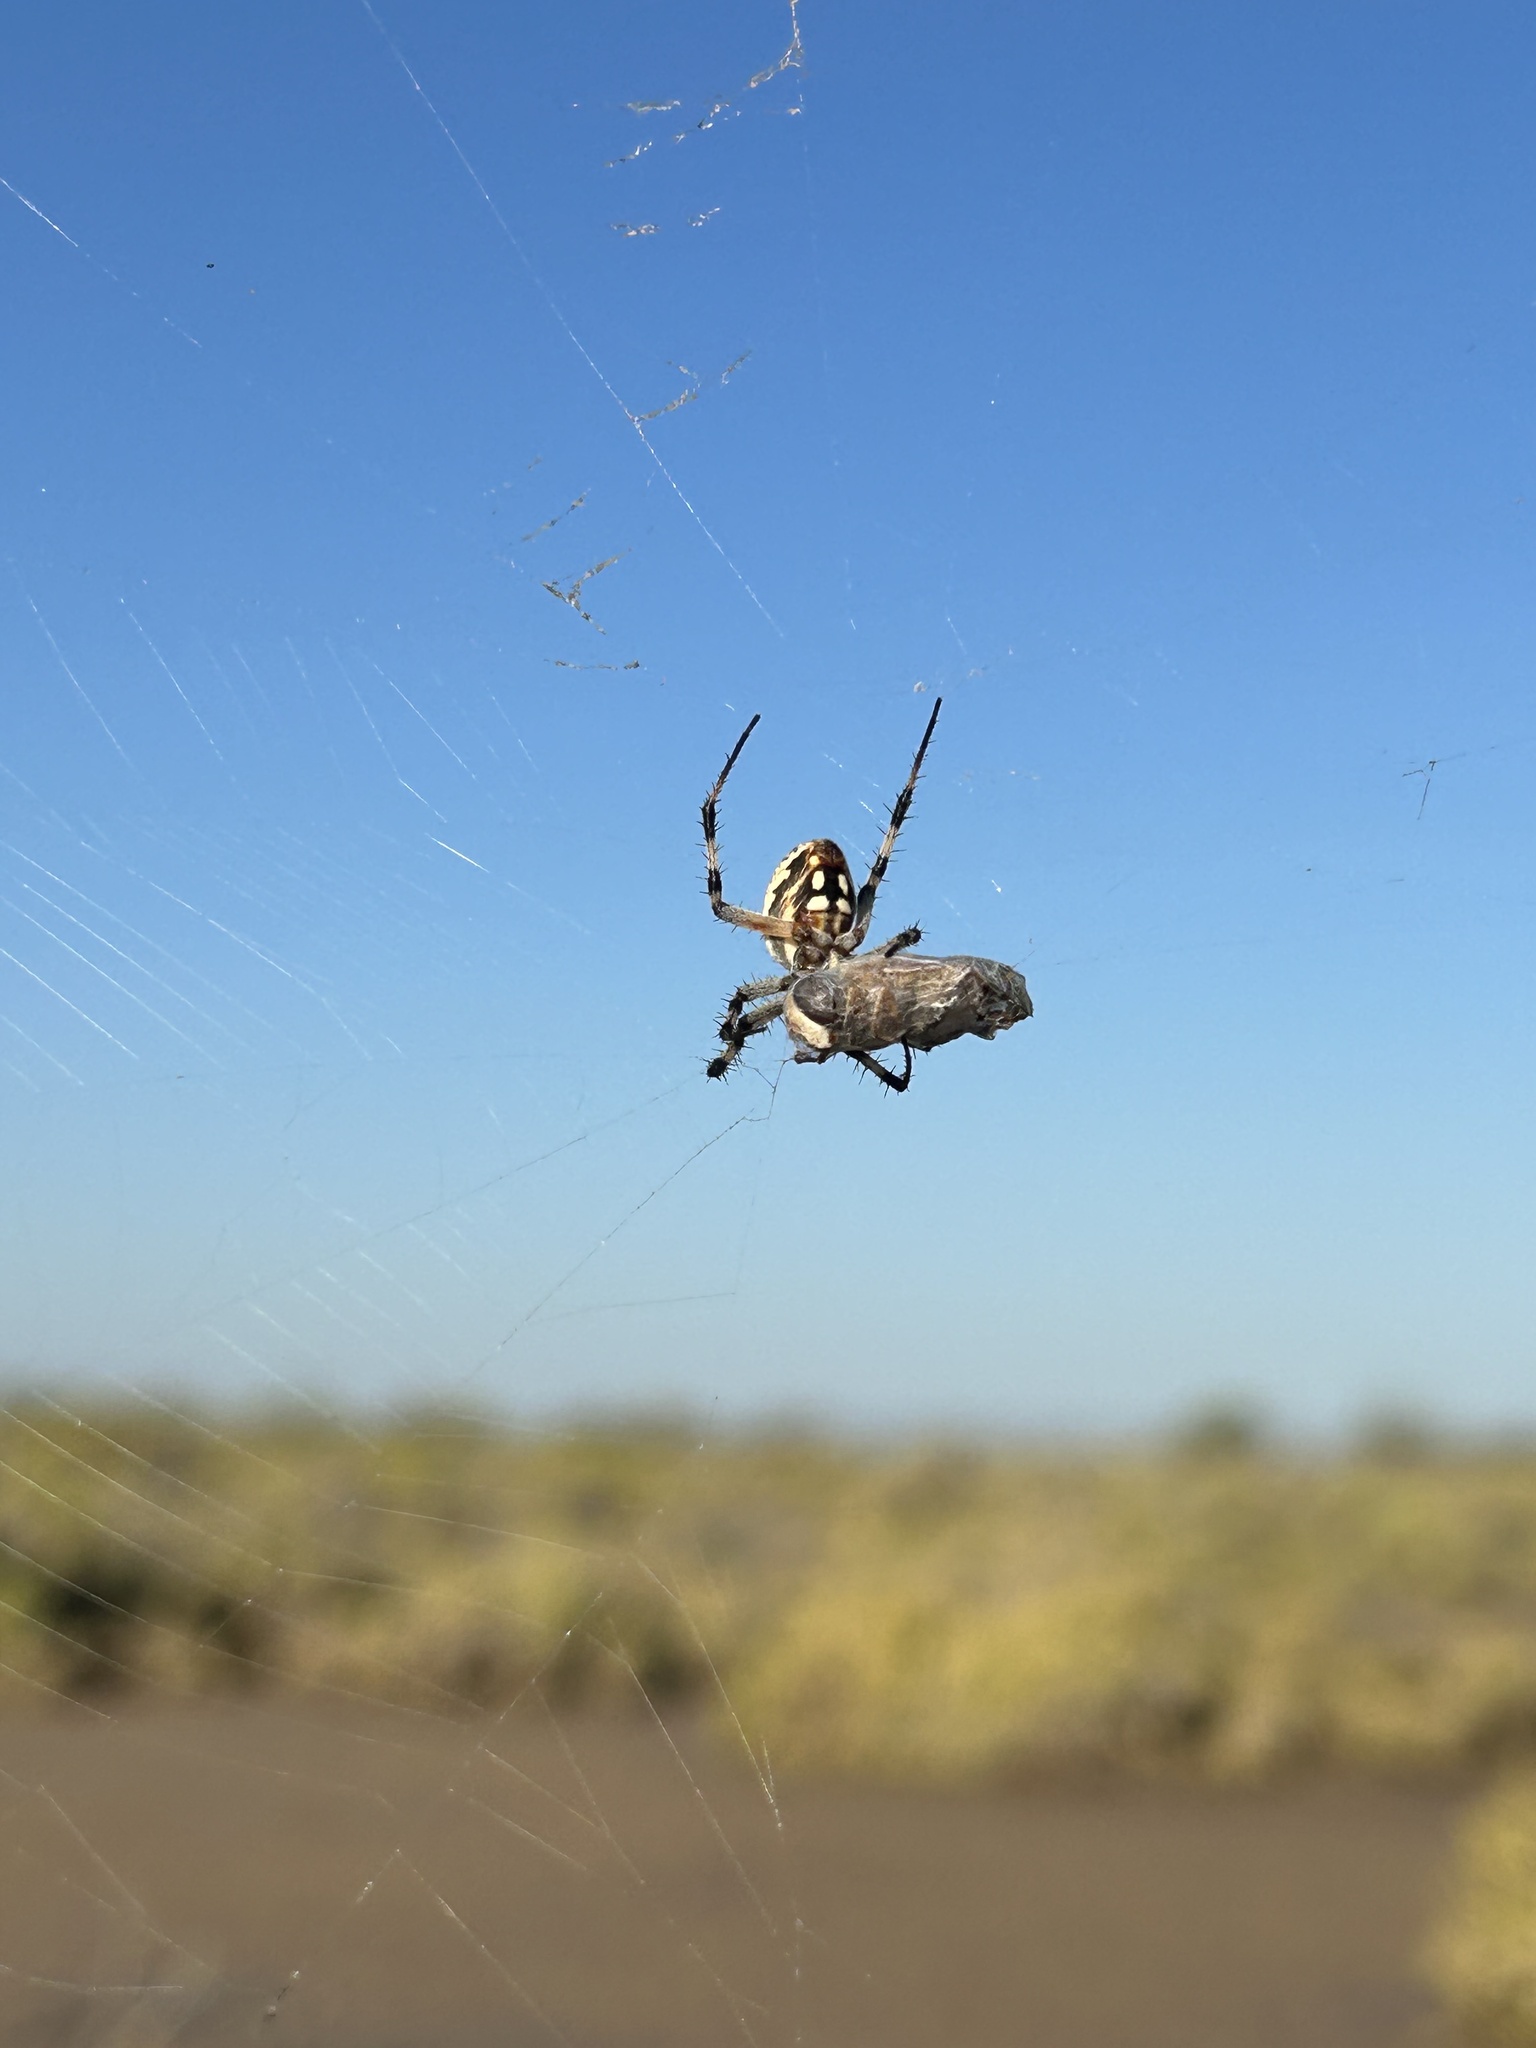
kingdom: Animalia
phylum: Arthropoda
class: Arachnida
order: Araneae
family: Araneidae
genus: Neoscona
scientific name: Neoscona oaxacensis
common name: Orb weavers
